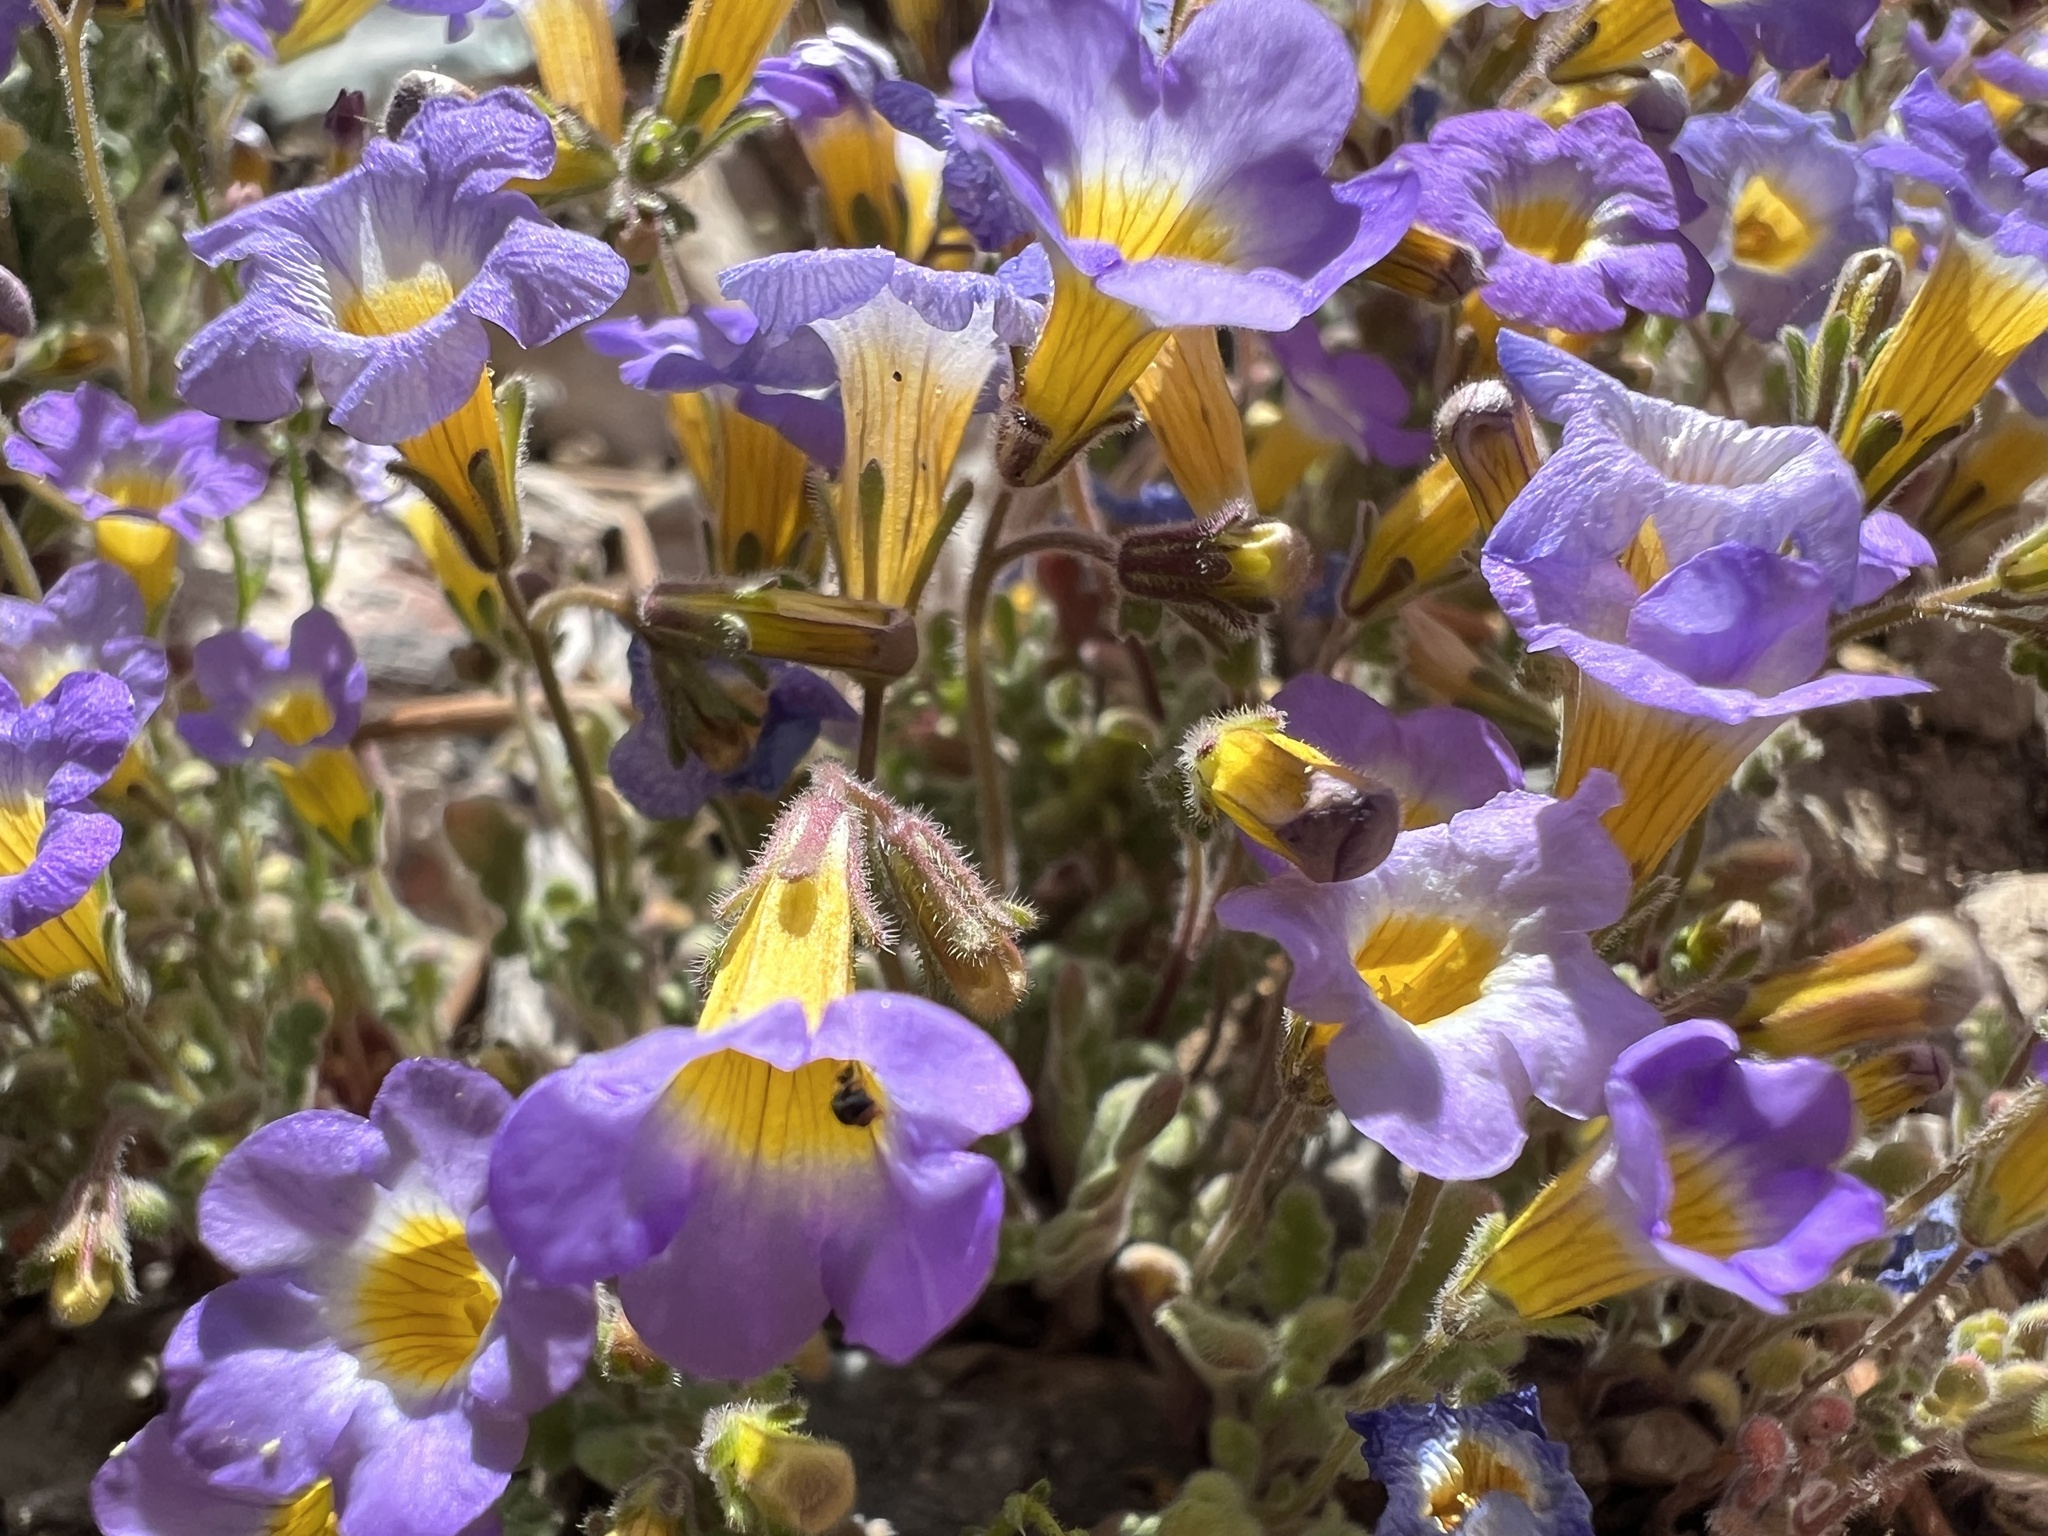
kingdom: Plantae
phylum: Tracheophyta
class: Magnoliopsida
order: Boraginales
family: Hydrophyllaceae
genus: Phacelia
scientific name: Phacelia fremontii
